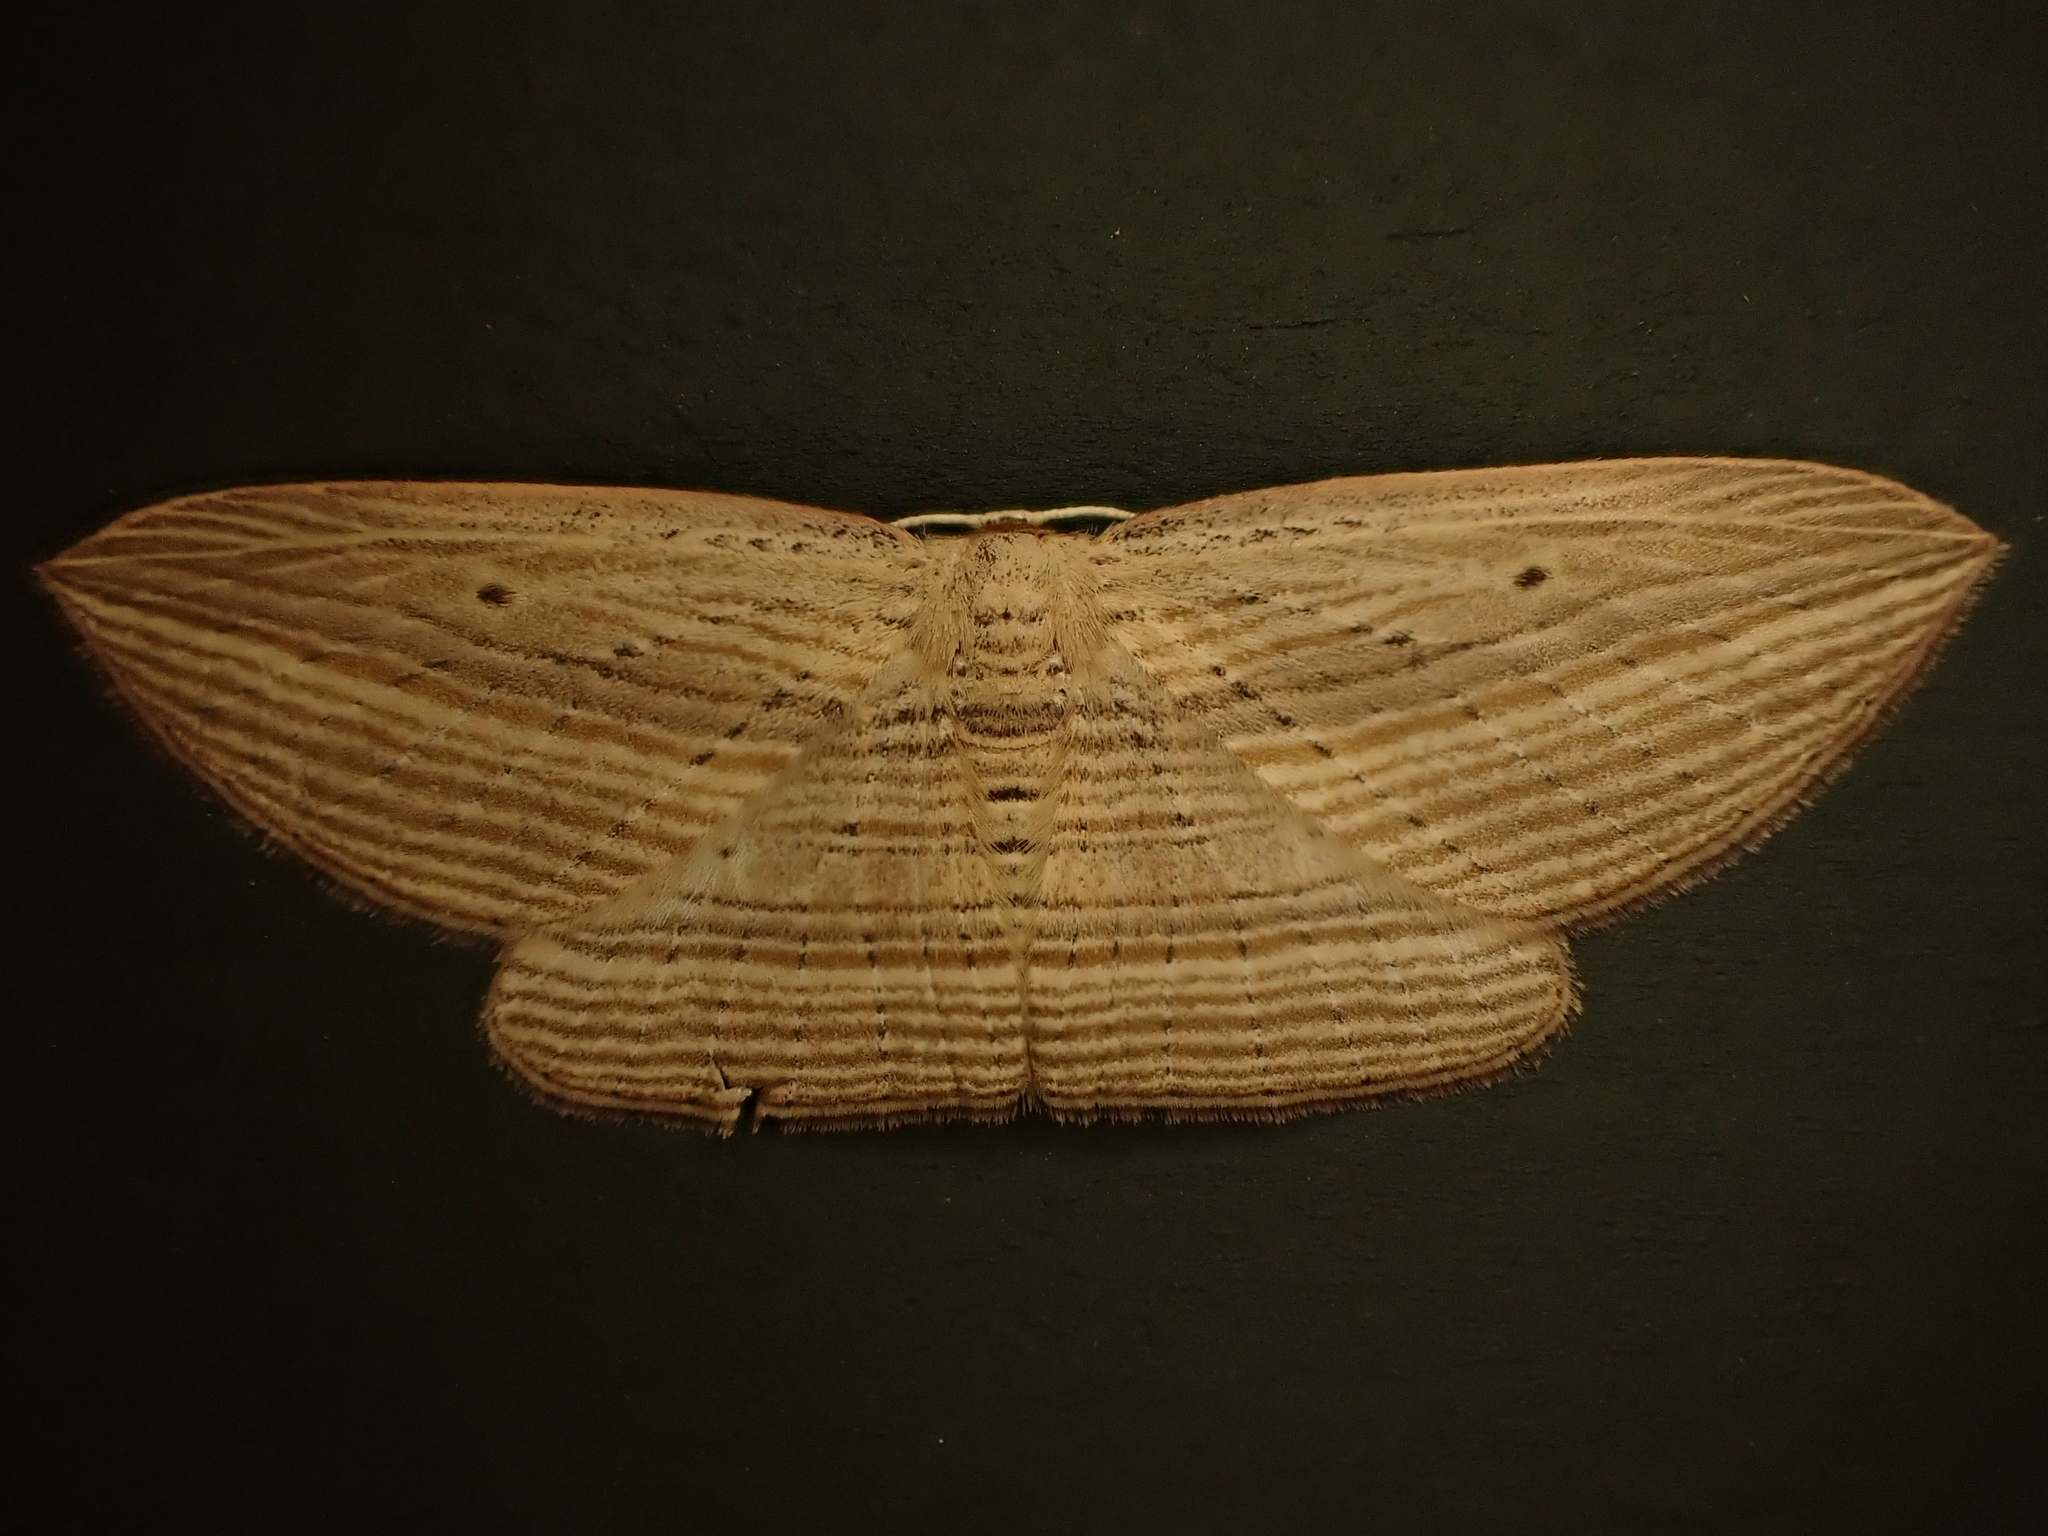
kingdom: Animalia
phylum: Arthropoda
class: Insecta
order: Lepidoptera
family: Geometridae
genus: Epiphryne
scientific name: Epiphryne verriculata
